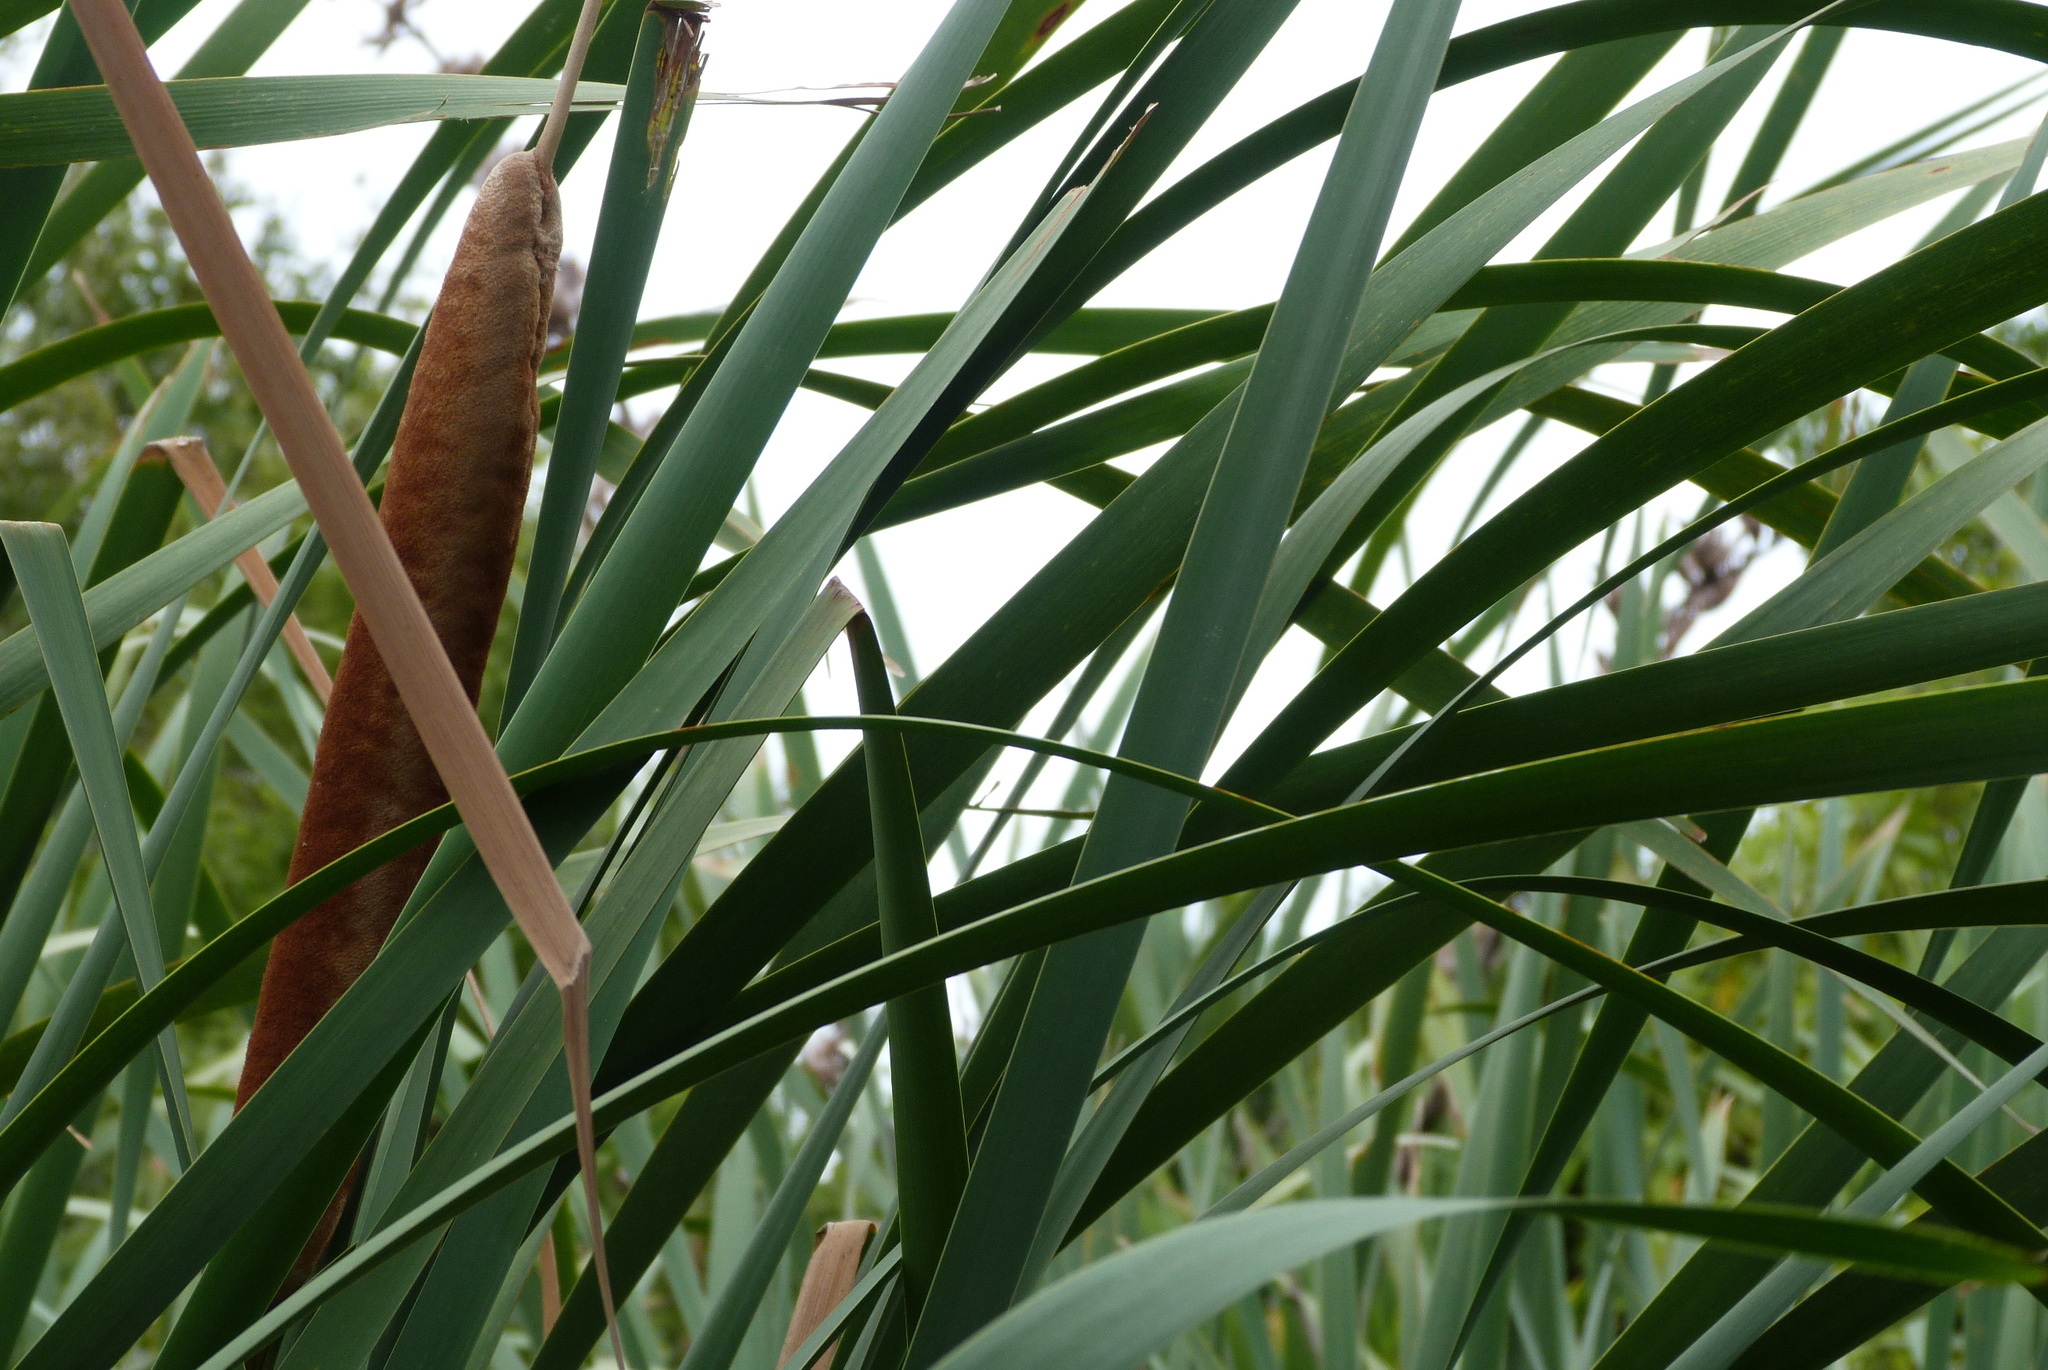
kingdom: Plantae
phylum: Tracheophyta
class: Liliopsida
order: Poales
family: Typhaceae
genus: Typha
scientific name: Typha orientalis
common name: Bullrush
